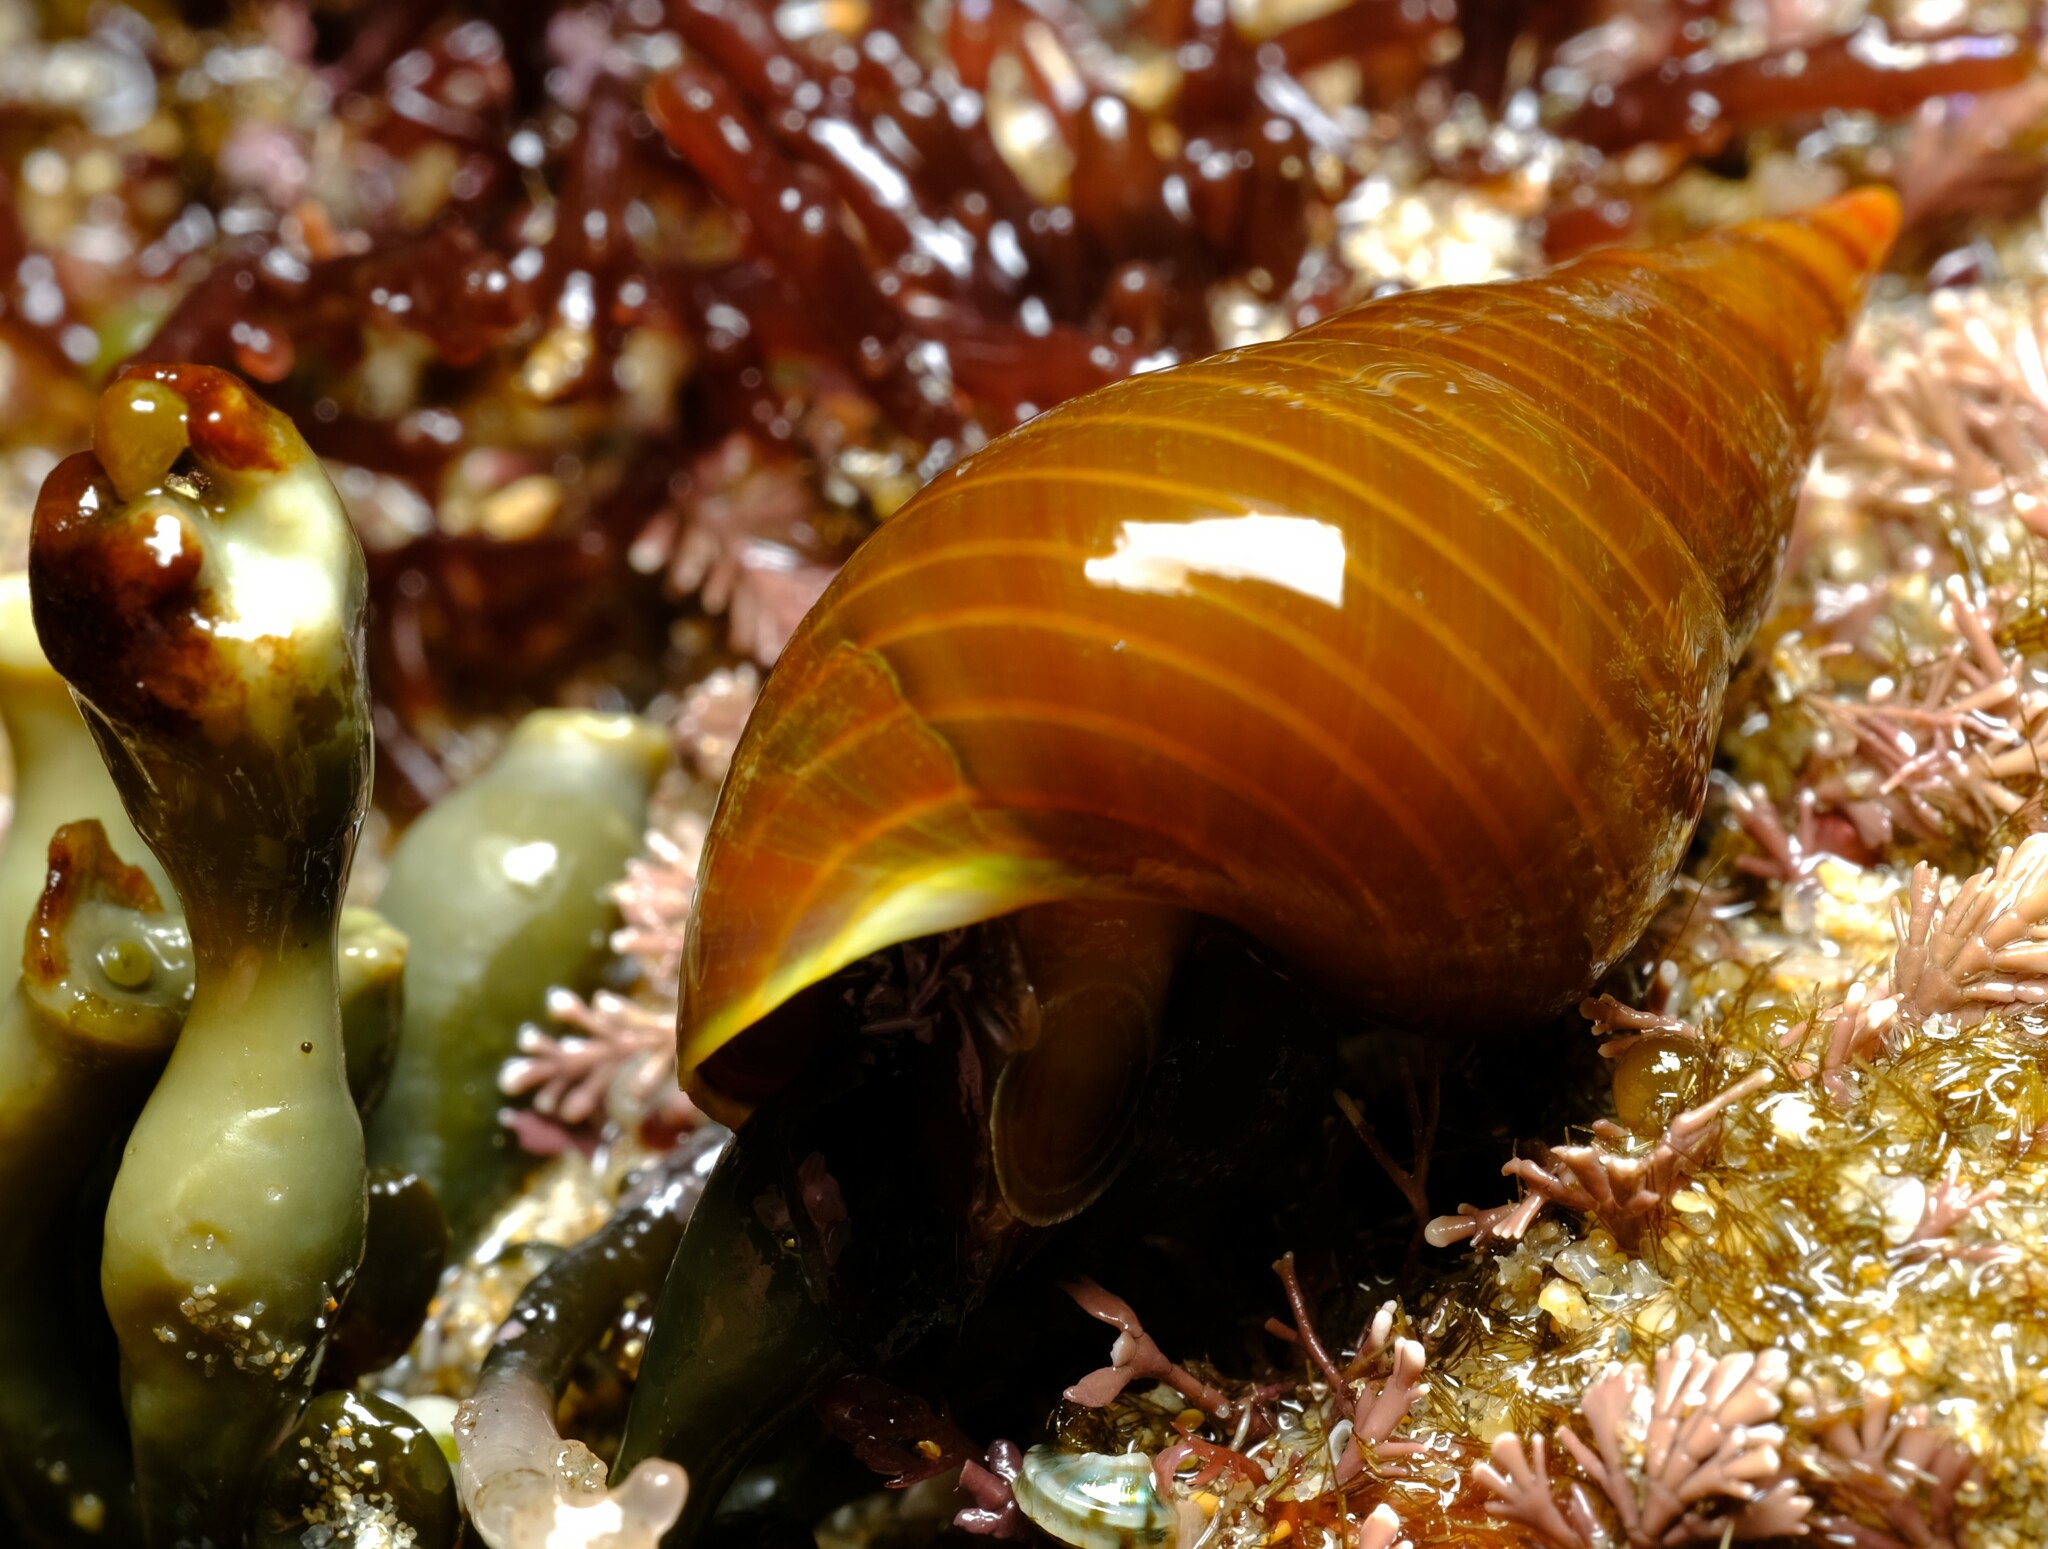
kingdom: Animalia
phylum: Mollusca
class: Gastropoda
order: Trochida
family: Trochidae
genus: Phasianotrochus
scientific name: Phasianotrochus eximius
